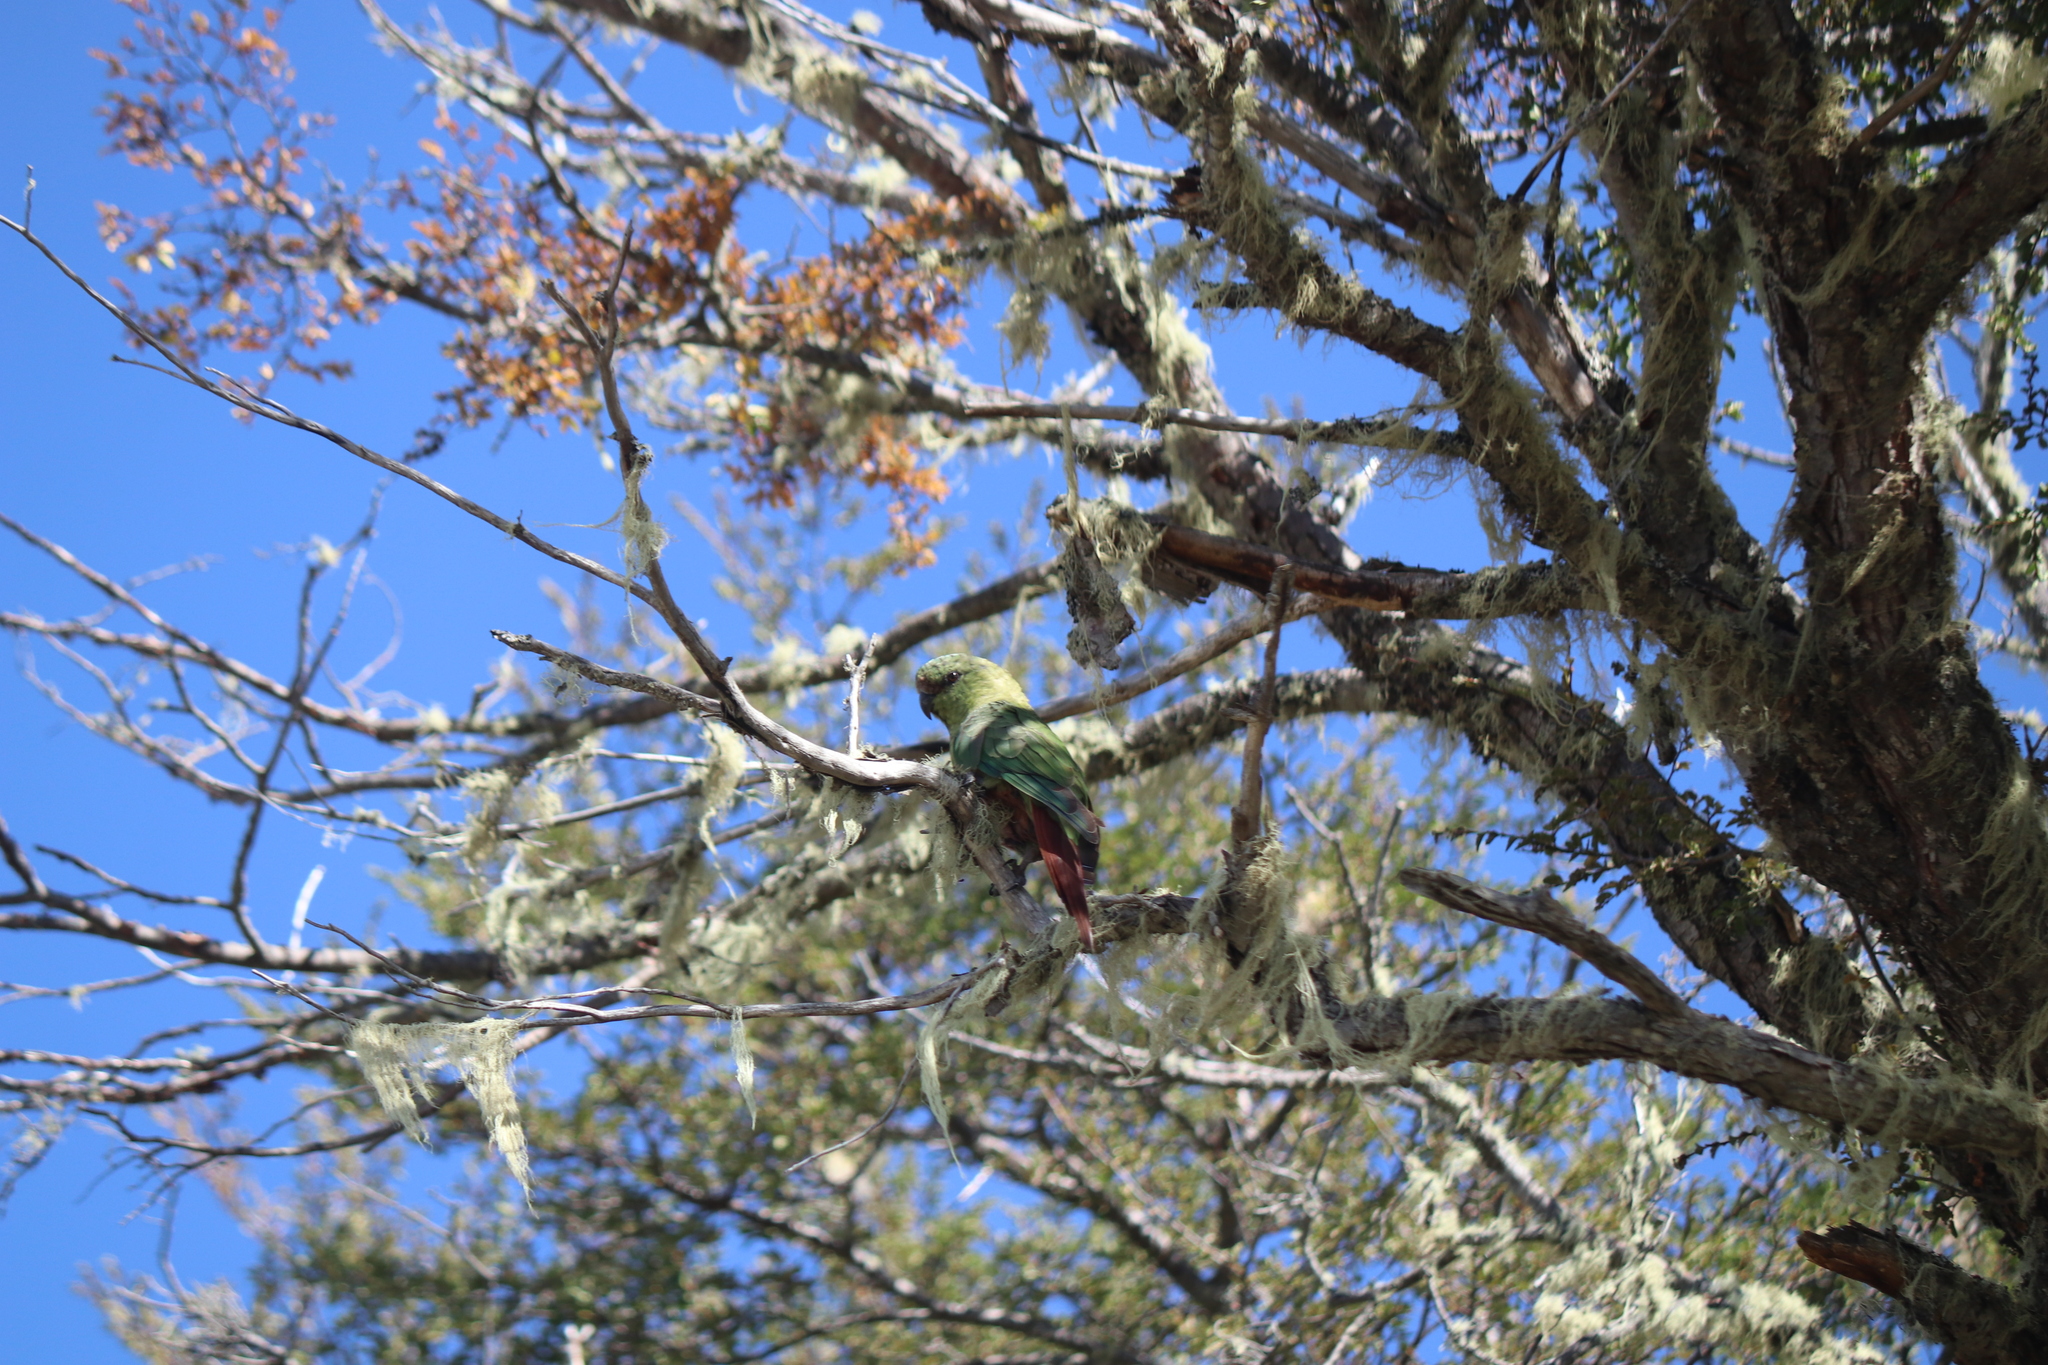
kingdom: Animalia
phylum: Chordata
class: Aves
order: Psittaciformes
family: Psittacidae
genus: Enicognathus
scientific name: Enicognathus ferrugineus
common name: Austral parakeet
